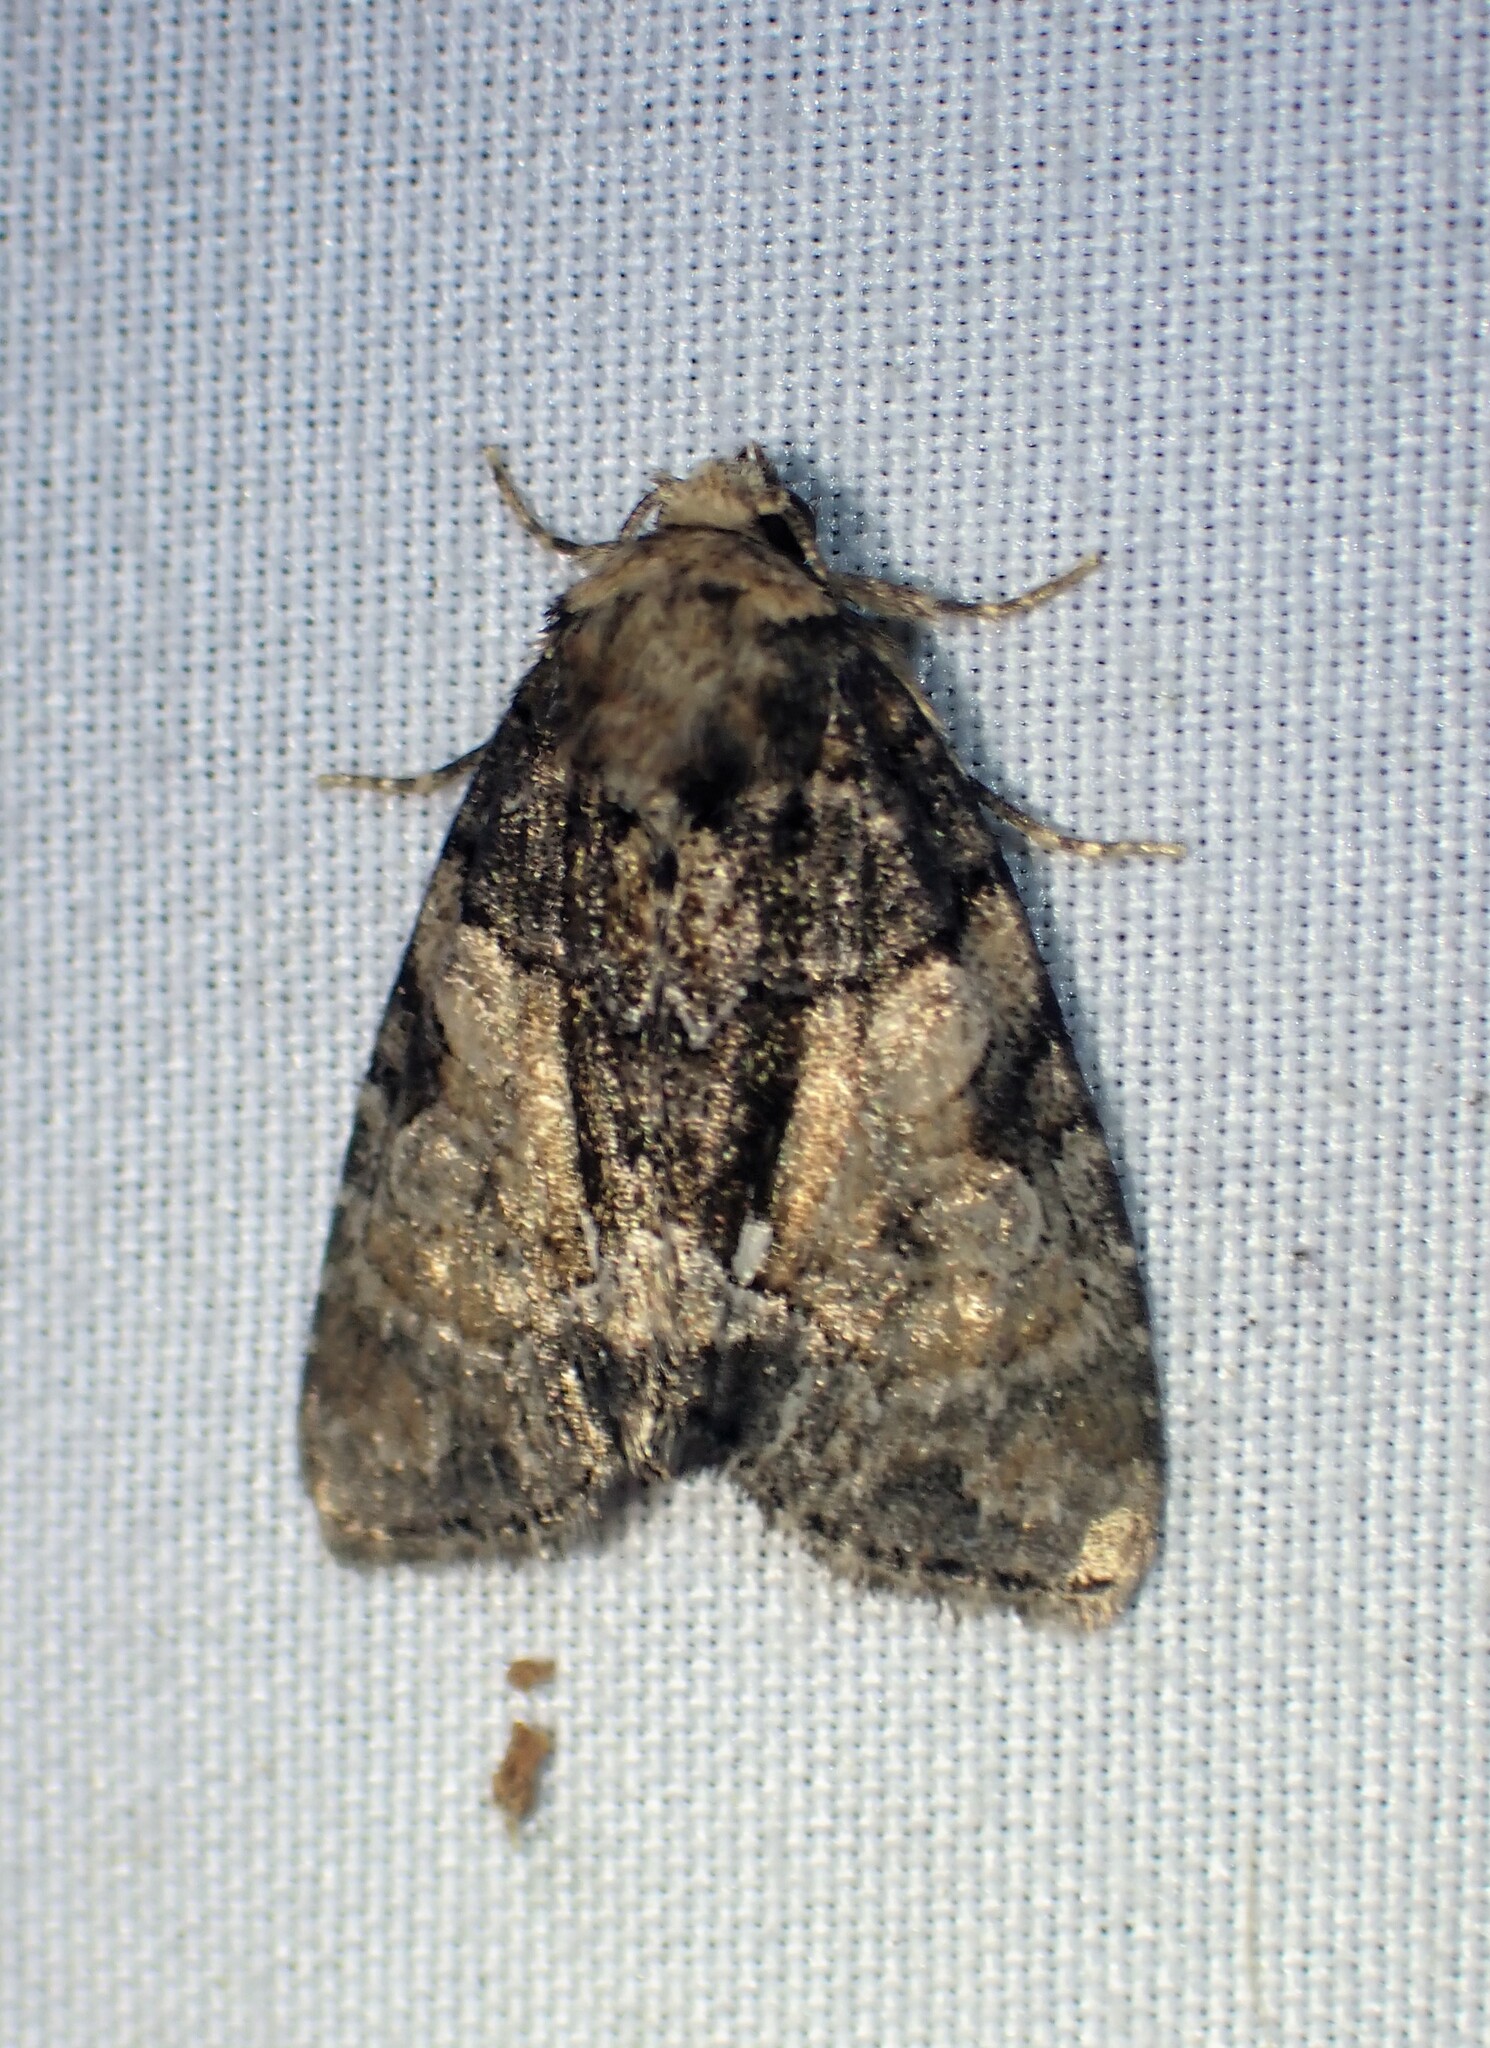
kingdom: Animalia
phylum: Arthropoda
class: Insecta
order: Lepidoptera
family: Noctuidae
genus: Chytonix
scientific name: Chytonix palliatricula
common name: Cloaked marvel
